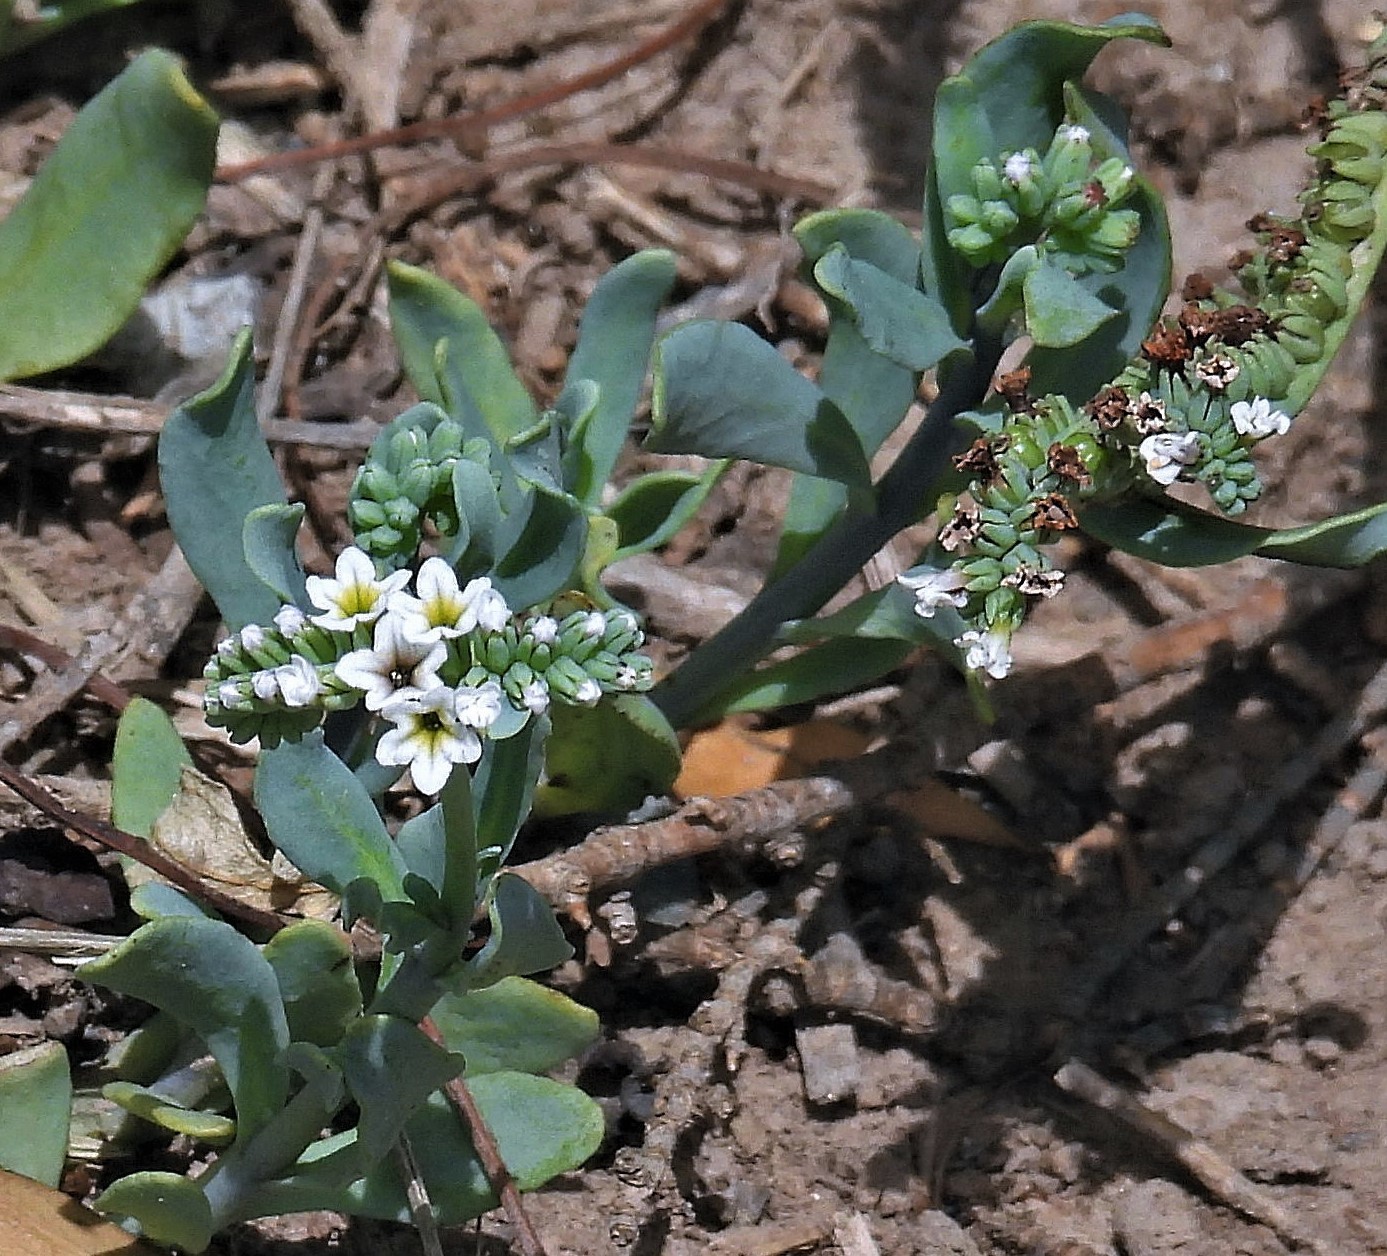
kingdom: Plantae
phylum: Tracheophyta
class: Magnoliopsida
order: Boraginales
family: Heliotropiaceae
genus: Heliotropium
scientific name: Heliotropium curassavicum
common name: Seaside heliotrope
